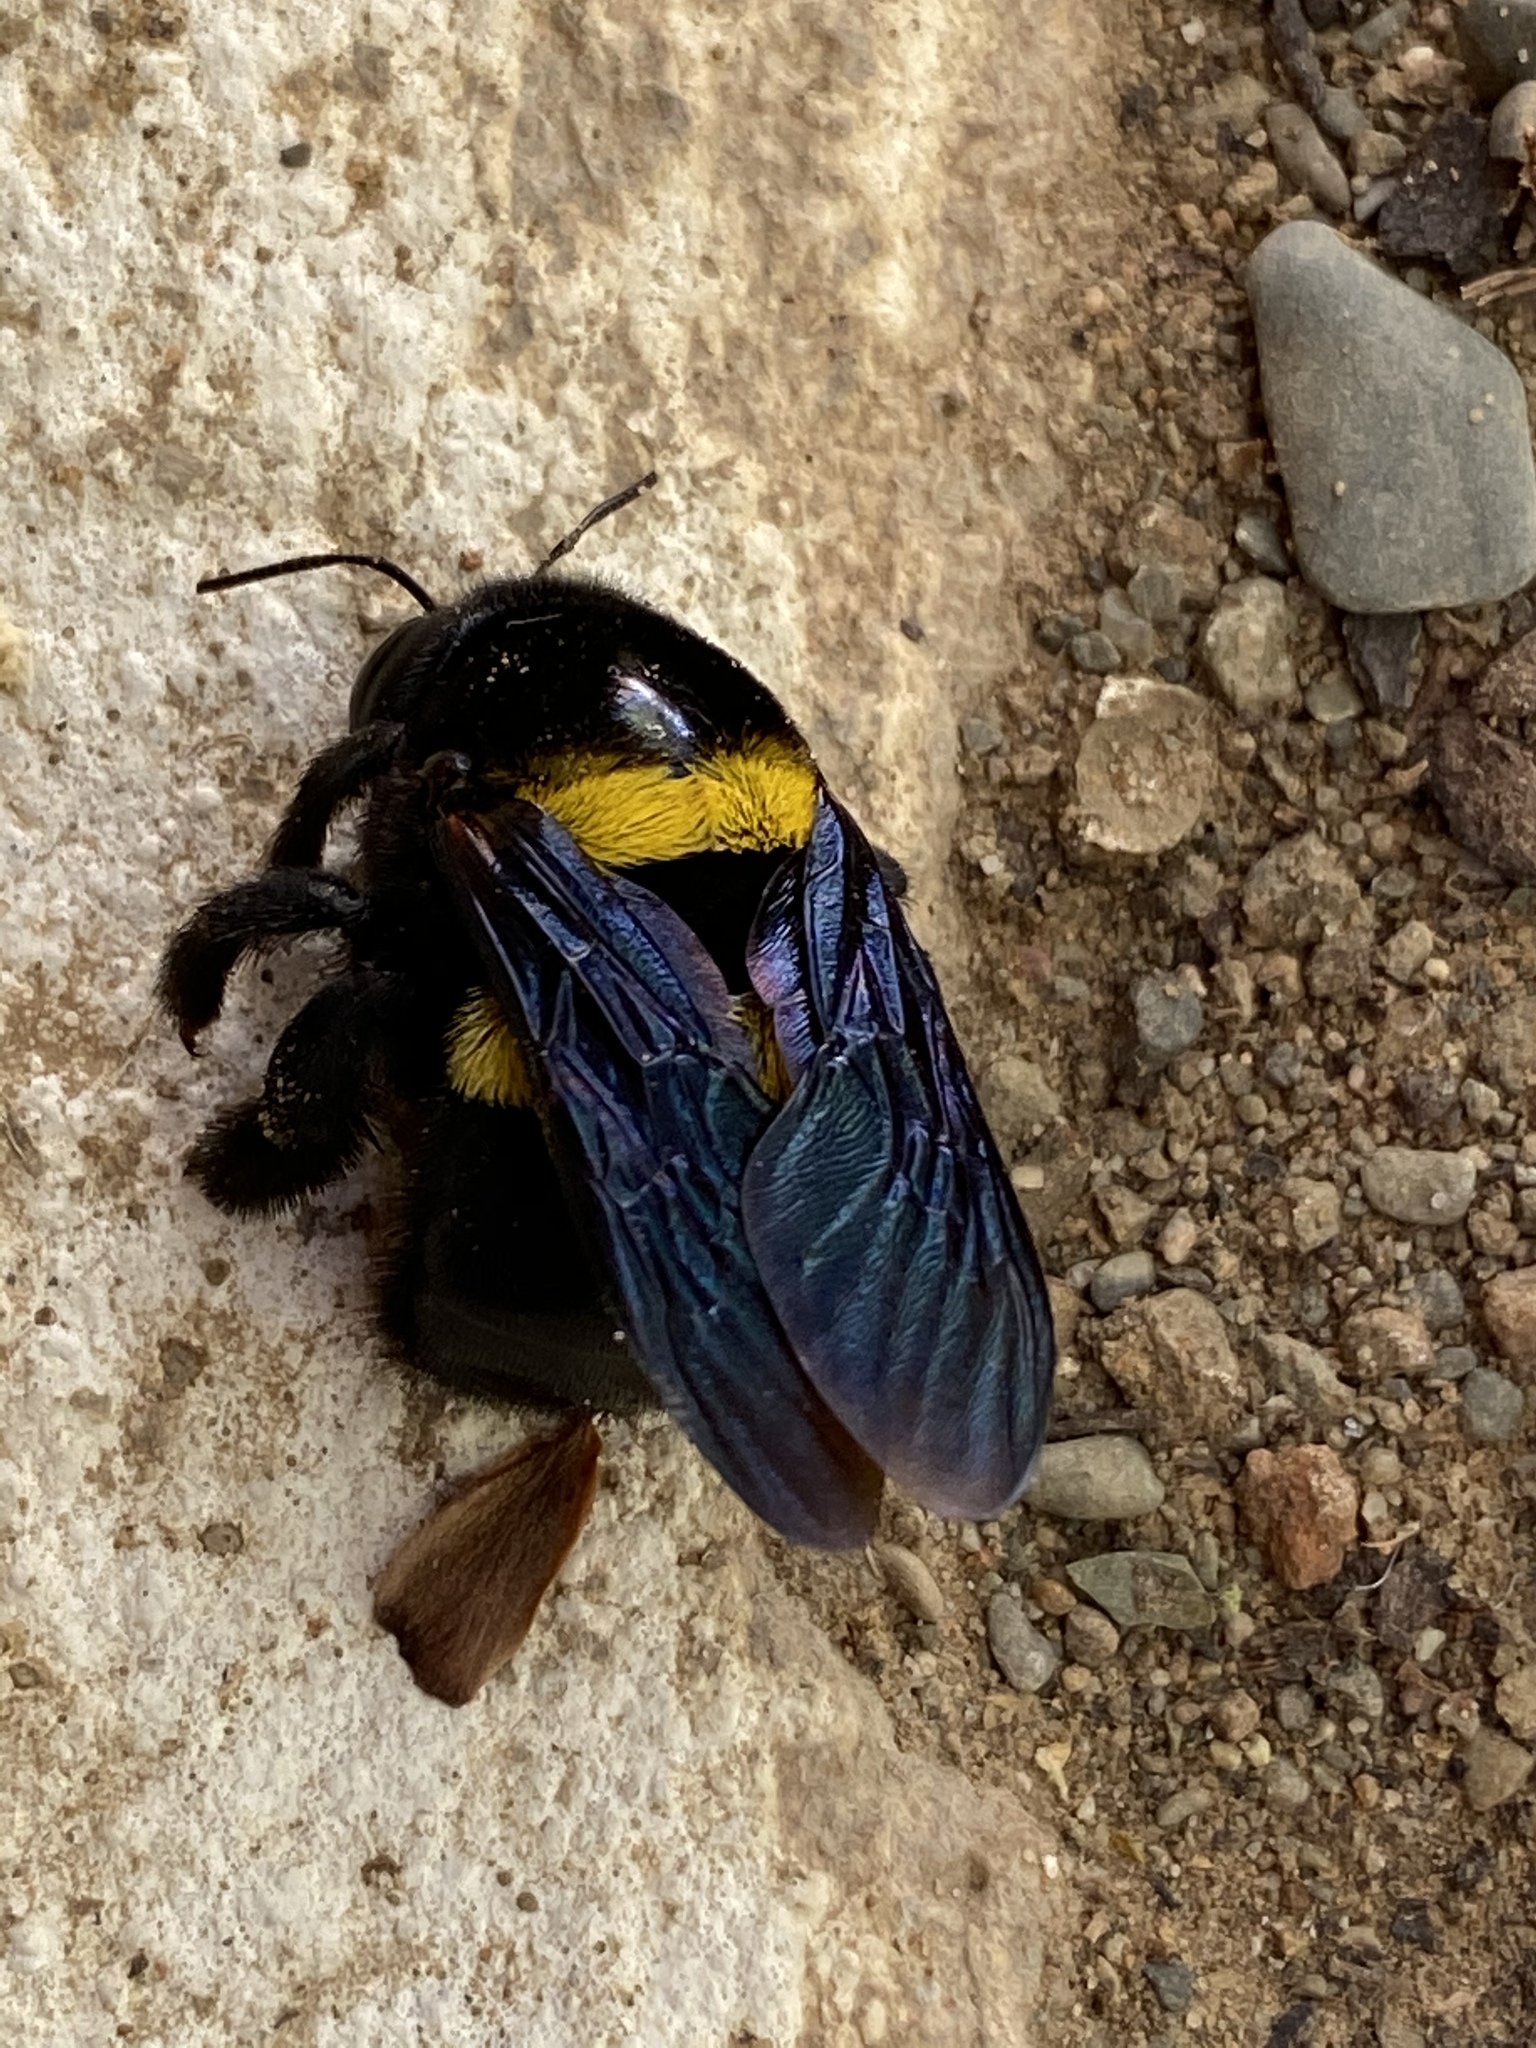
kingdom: Animalia
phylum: Arthropoda
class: Insecta
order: Hymenoptera
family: Apidae
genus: Xylocopa
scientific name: Xylocopa caffra
